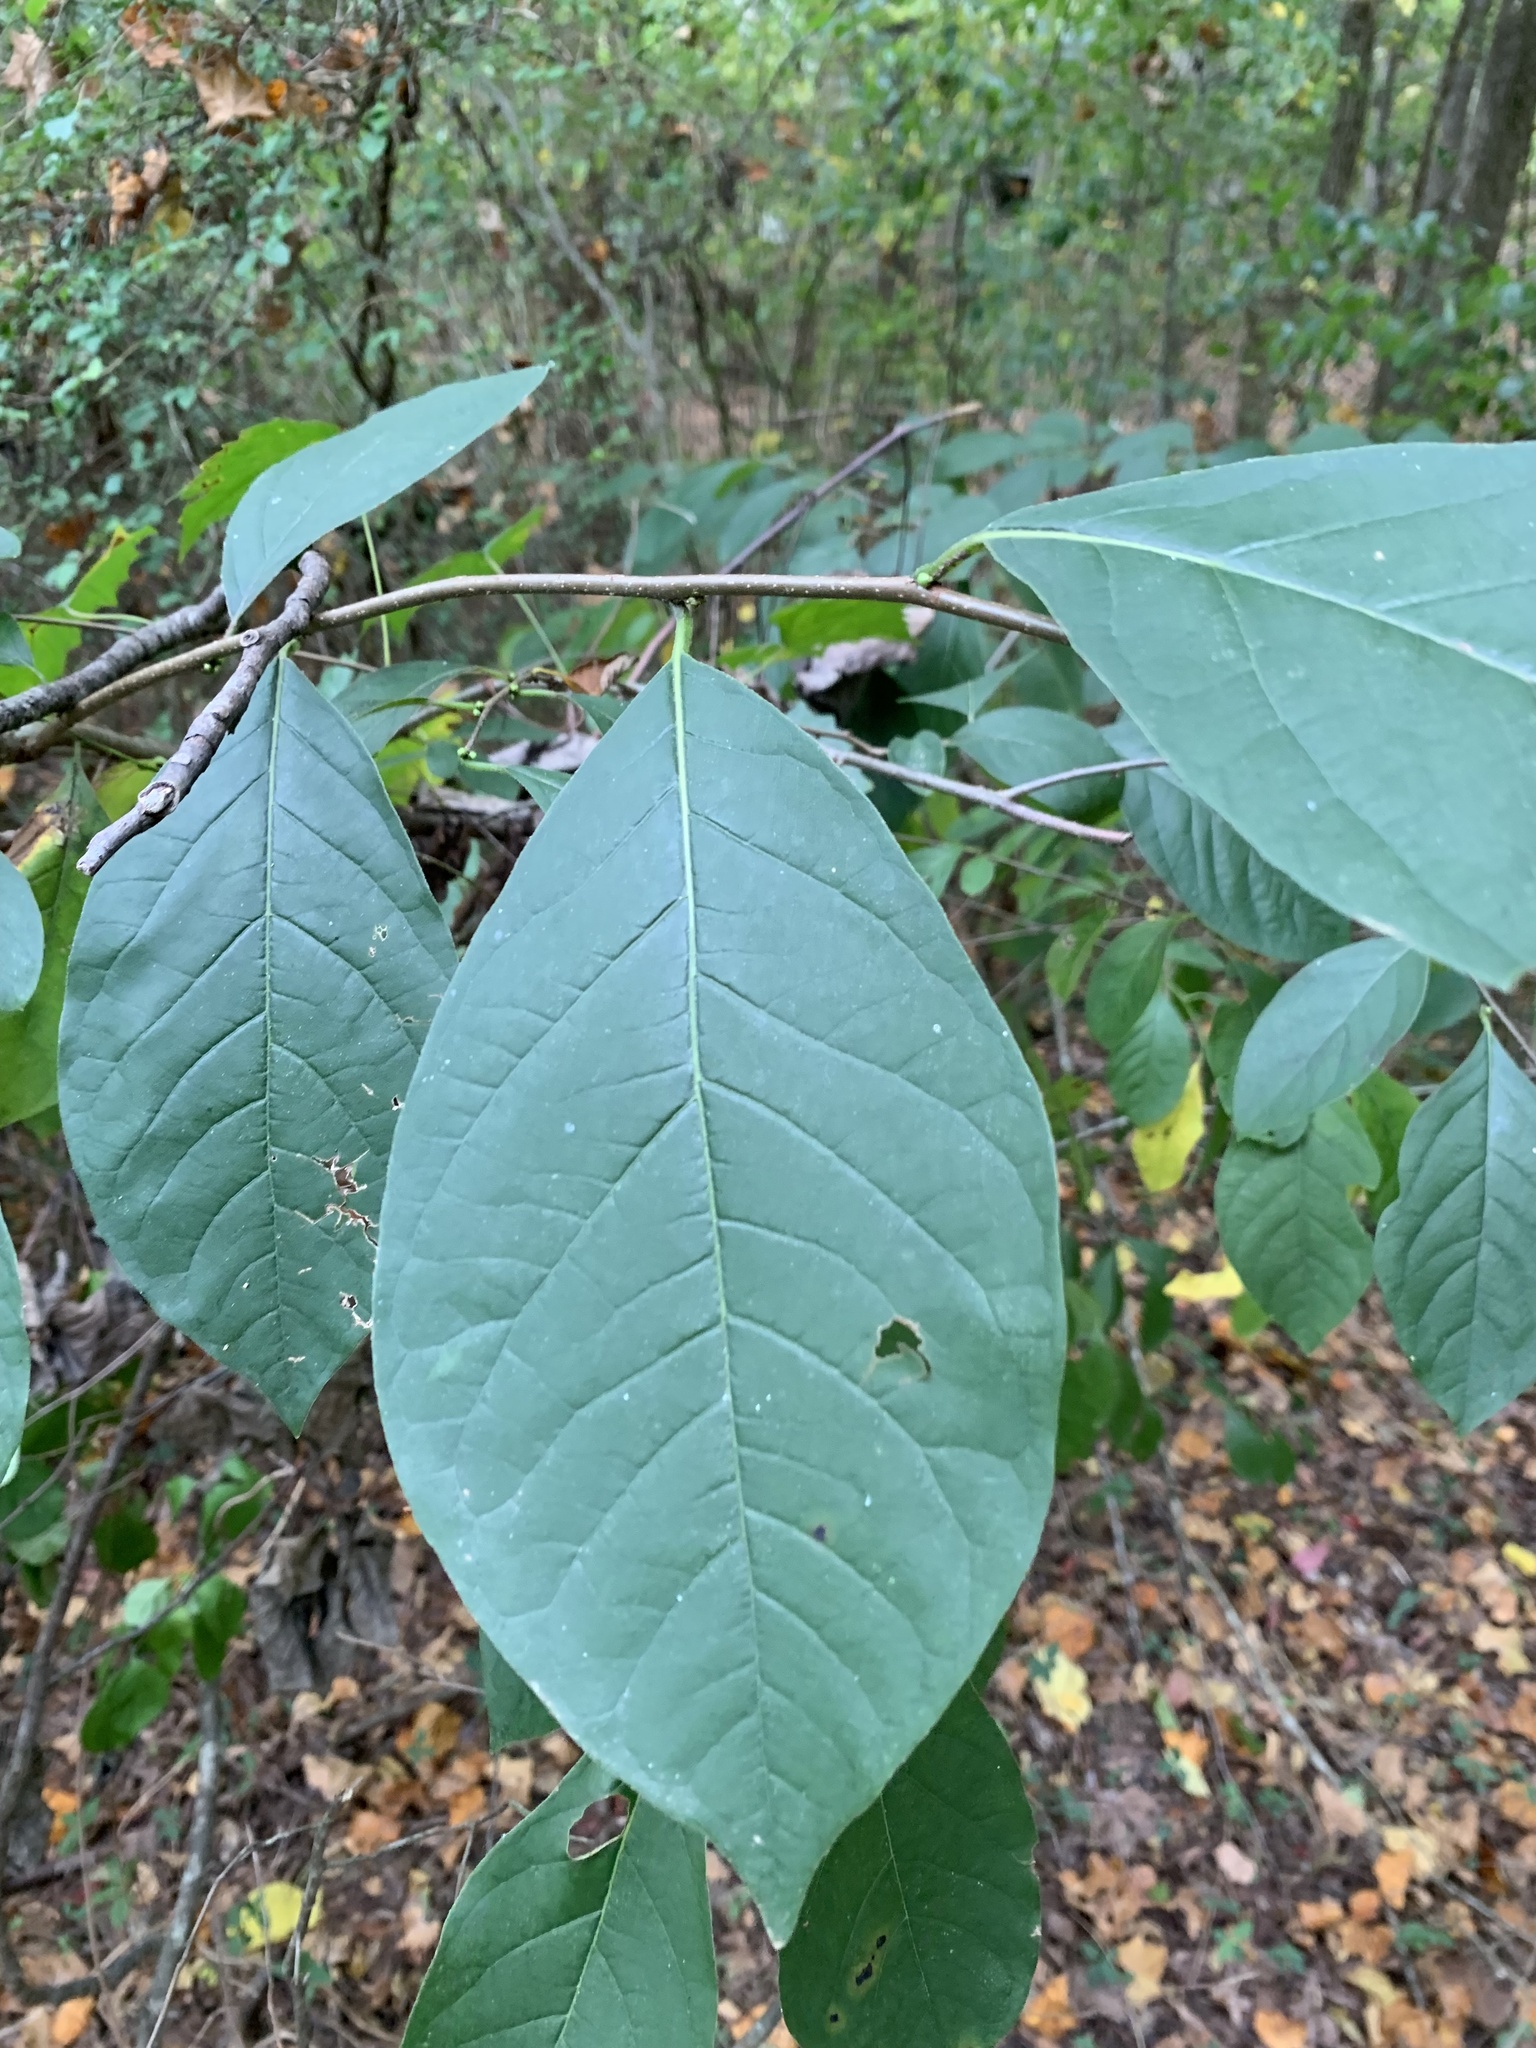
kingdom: Plantae
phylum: Tracheophyta
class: Magnoliopsida
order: Laurales
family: Lauraceae
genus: Lindera
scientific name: Lindera benzoin
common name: Spicebush
